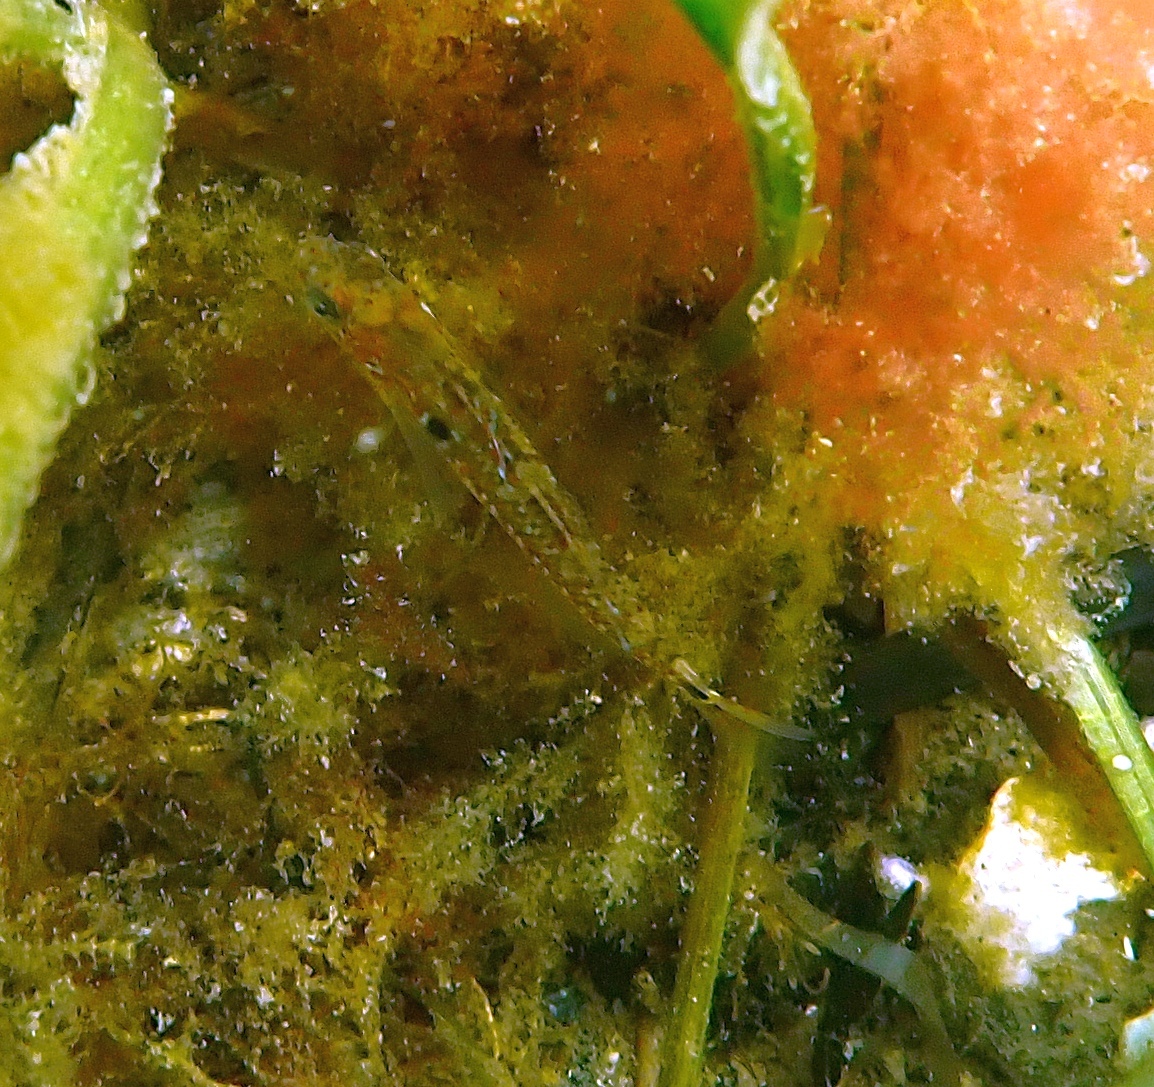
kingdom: Animalia
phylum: Chordata
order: Perciformes
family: Gobiidae
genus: Gobiusculus
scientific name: Gobiusculus flavescens
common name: Two-spotted goby
